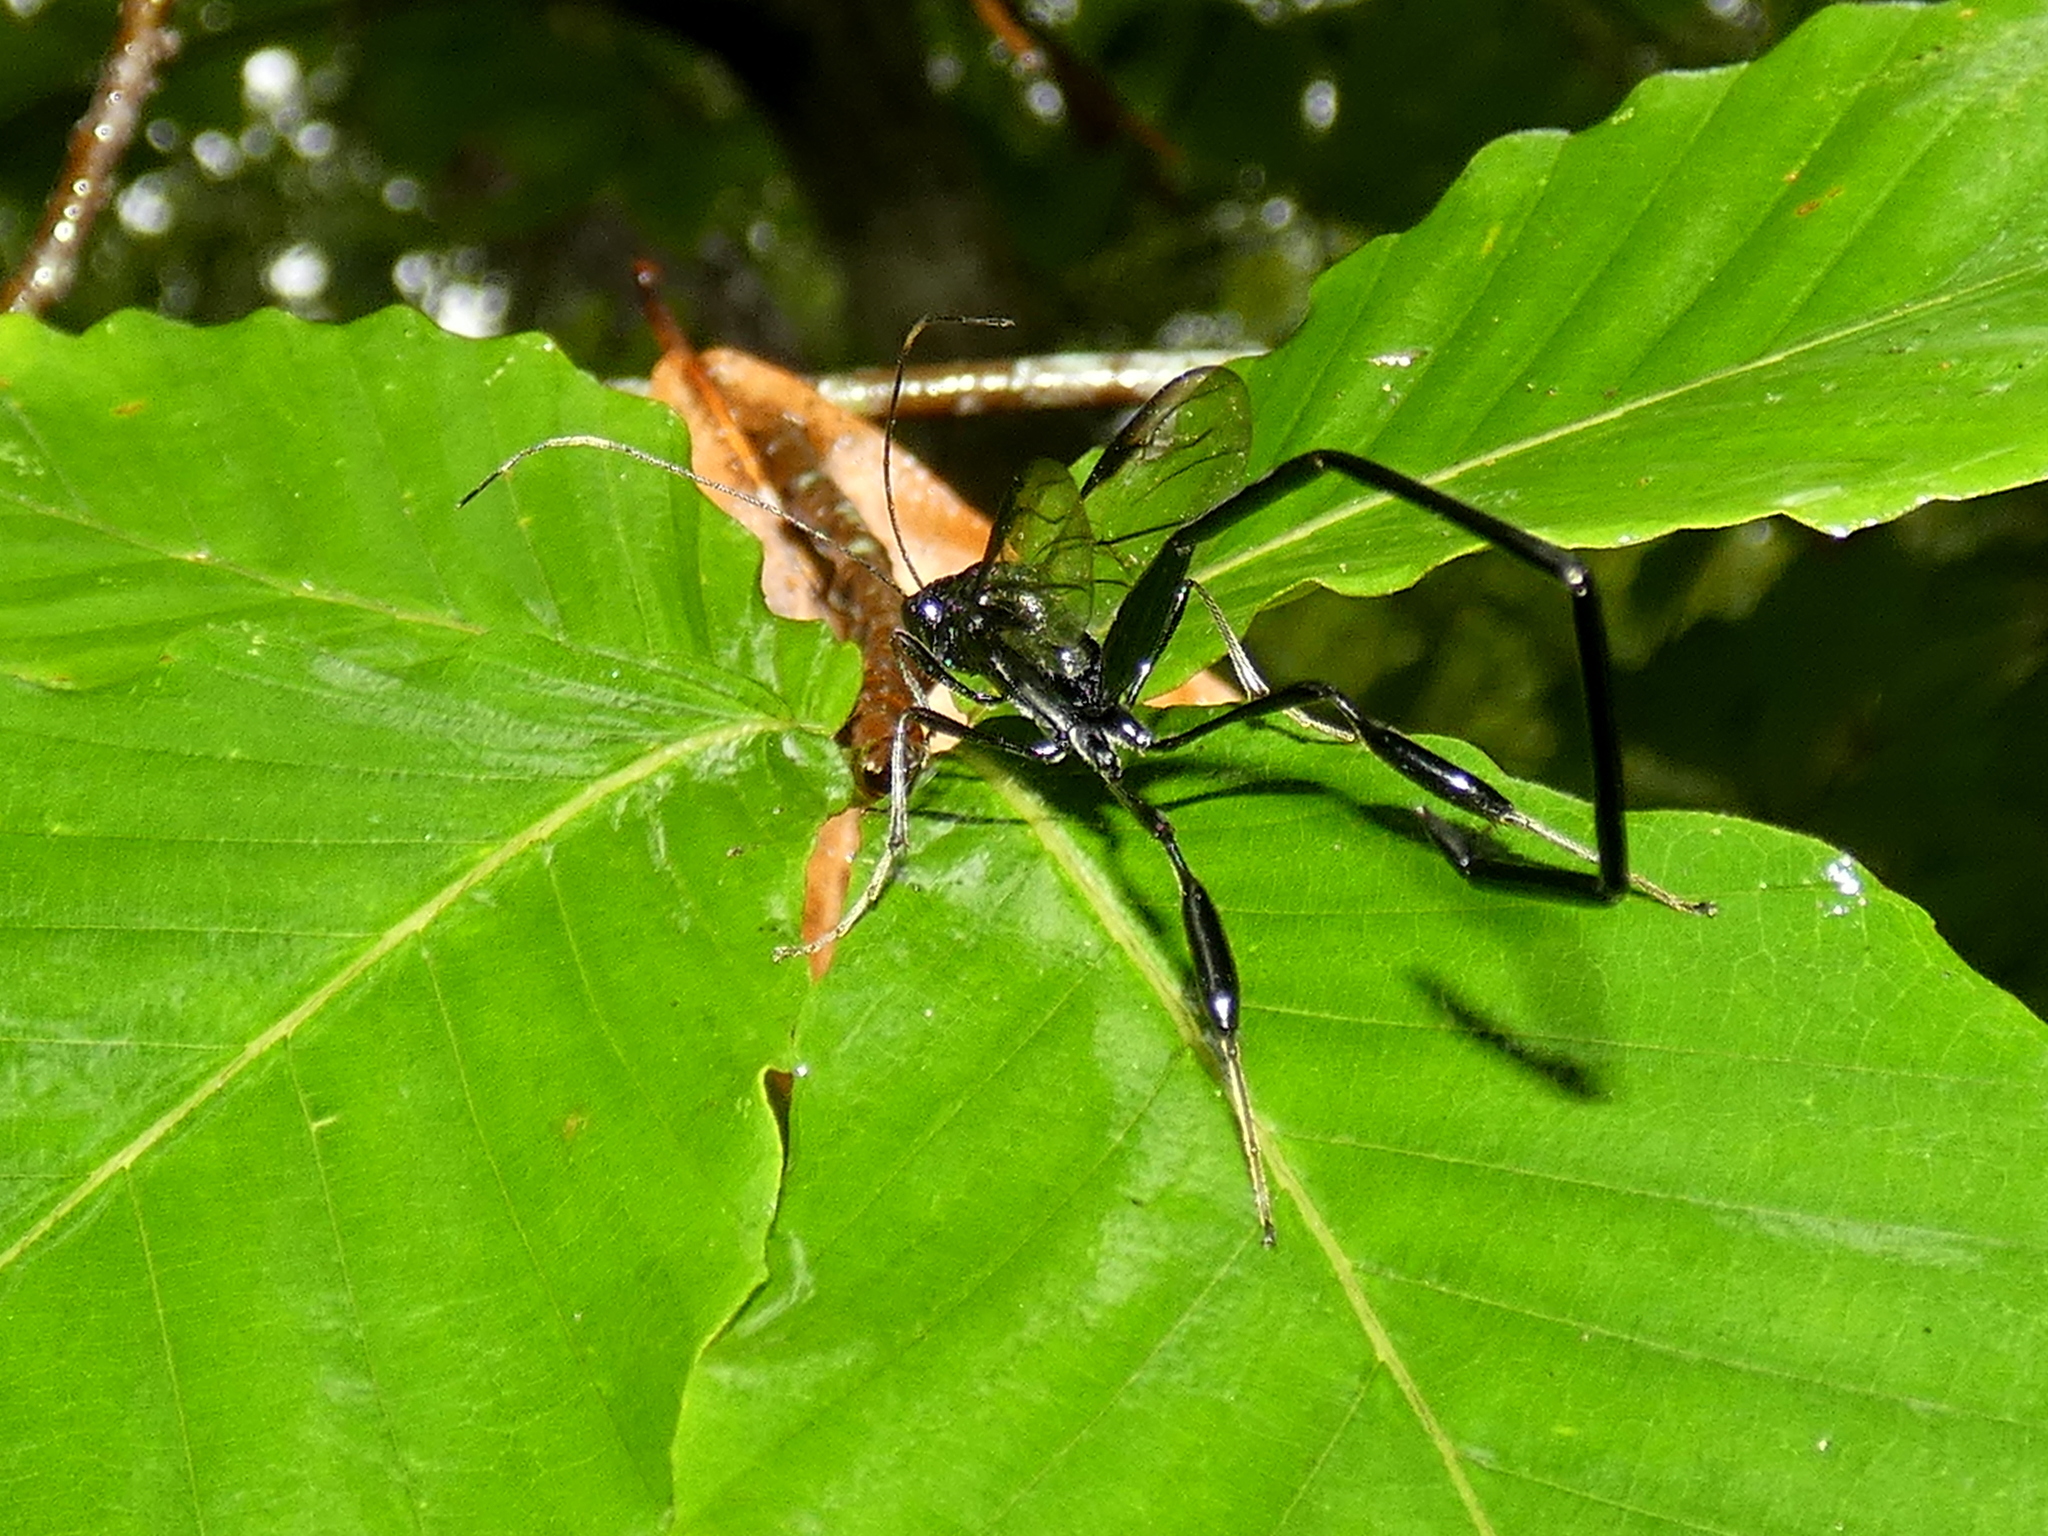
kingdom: Animalia
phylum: Arthropoda
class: Insecta
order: Hymenoptera
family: Pelecinidae
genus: Pelecinus
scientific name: Pelecinus polyturator
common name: American pelecinid wasp
